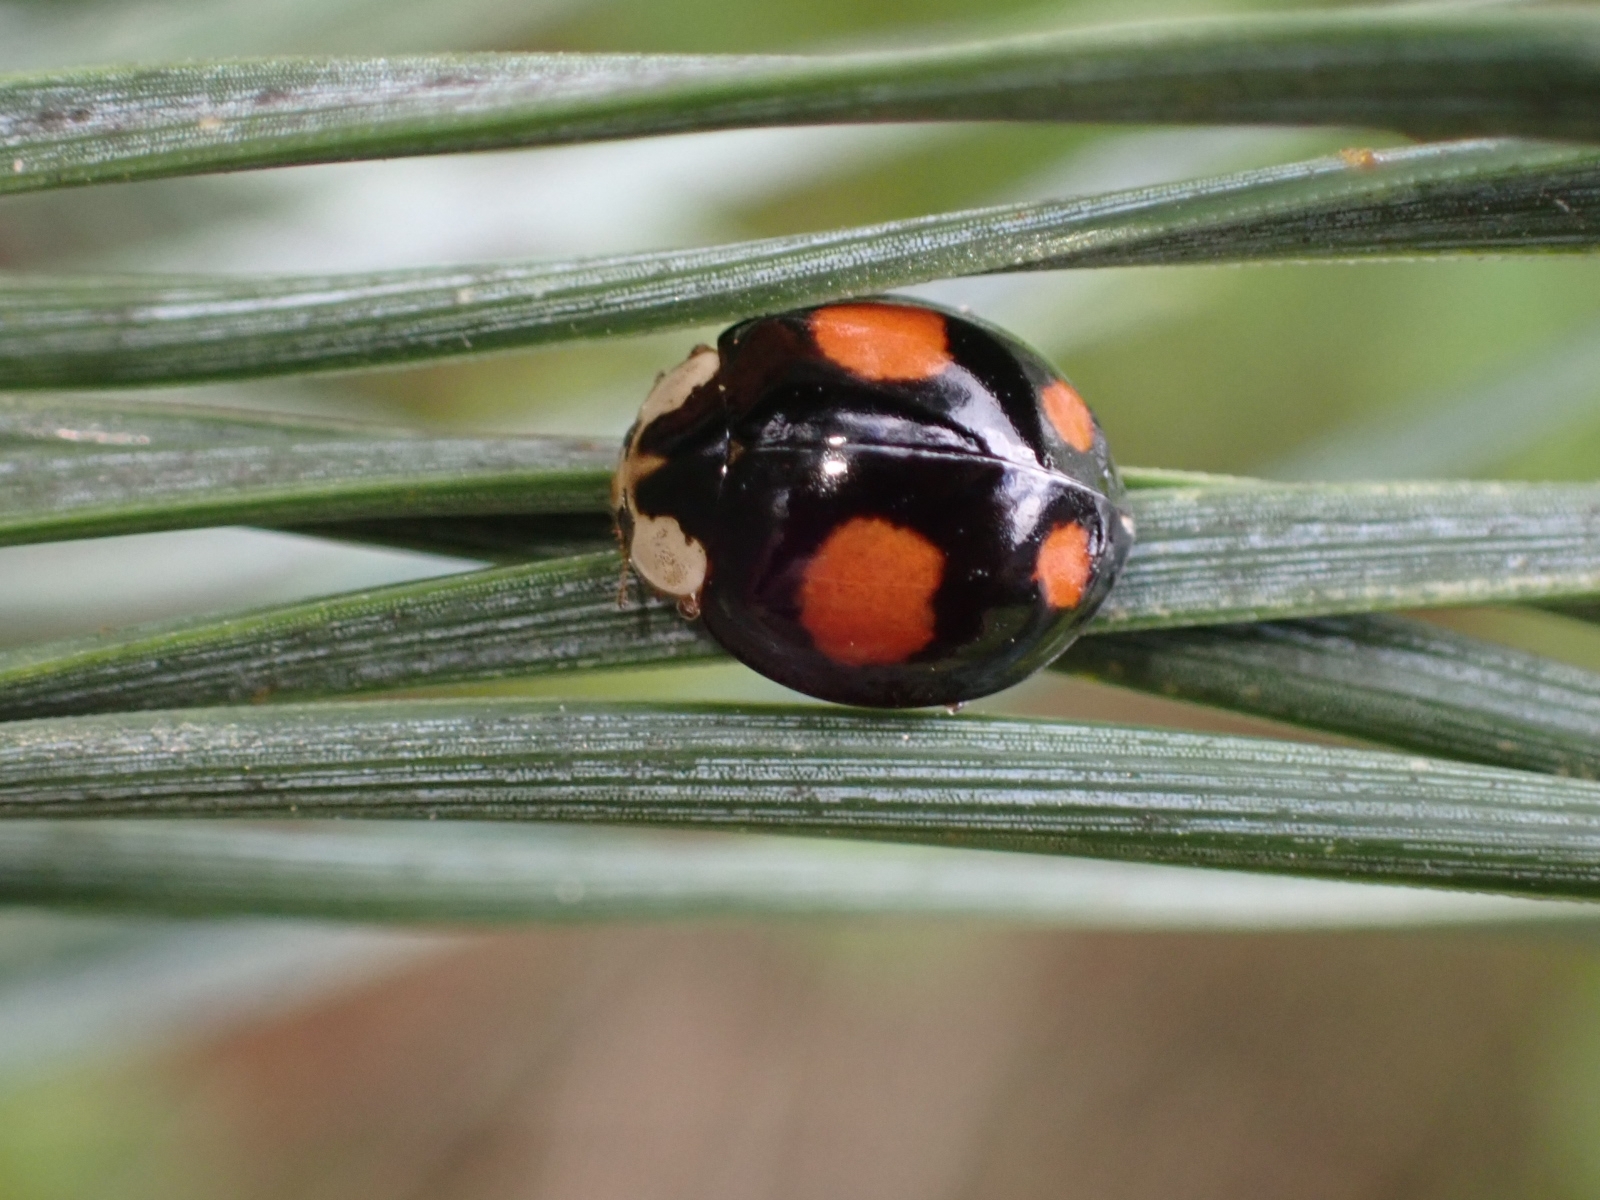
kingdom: Animalia
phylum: Arthropoda
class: Insecta
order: Coleoptera
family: Coccinellidae
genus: Harmonia
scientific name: Harmonia axyridis
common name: Harlequin ladybird
